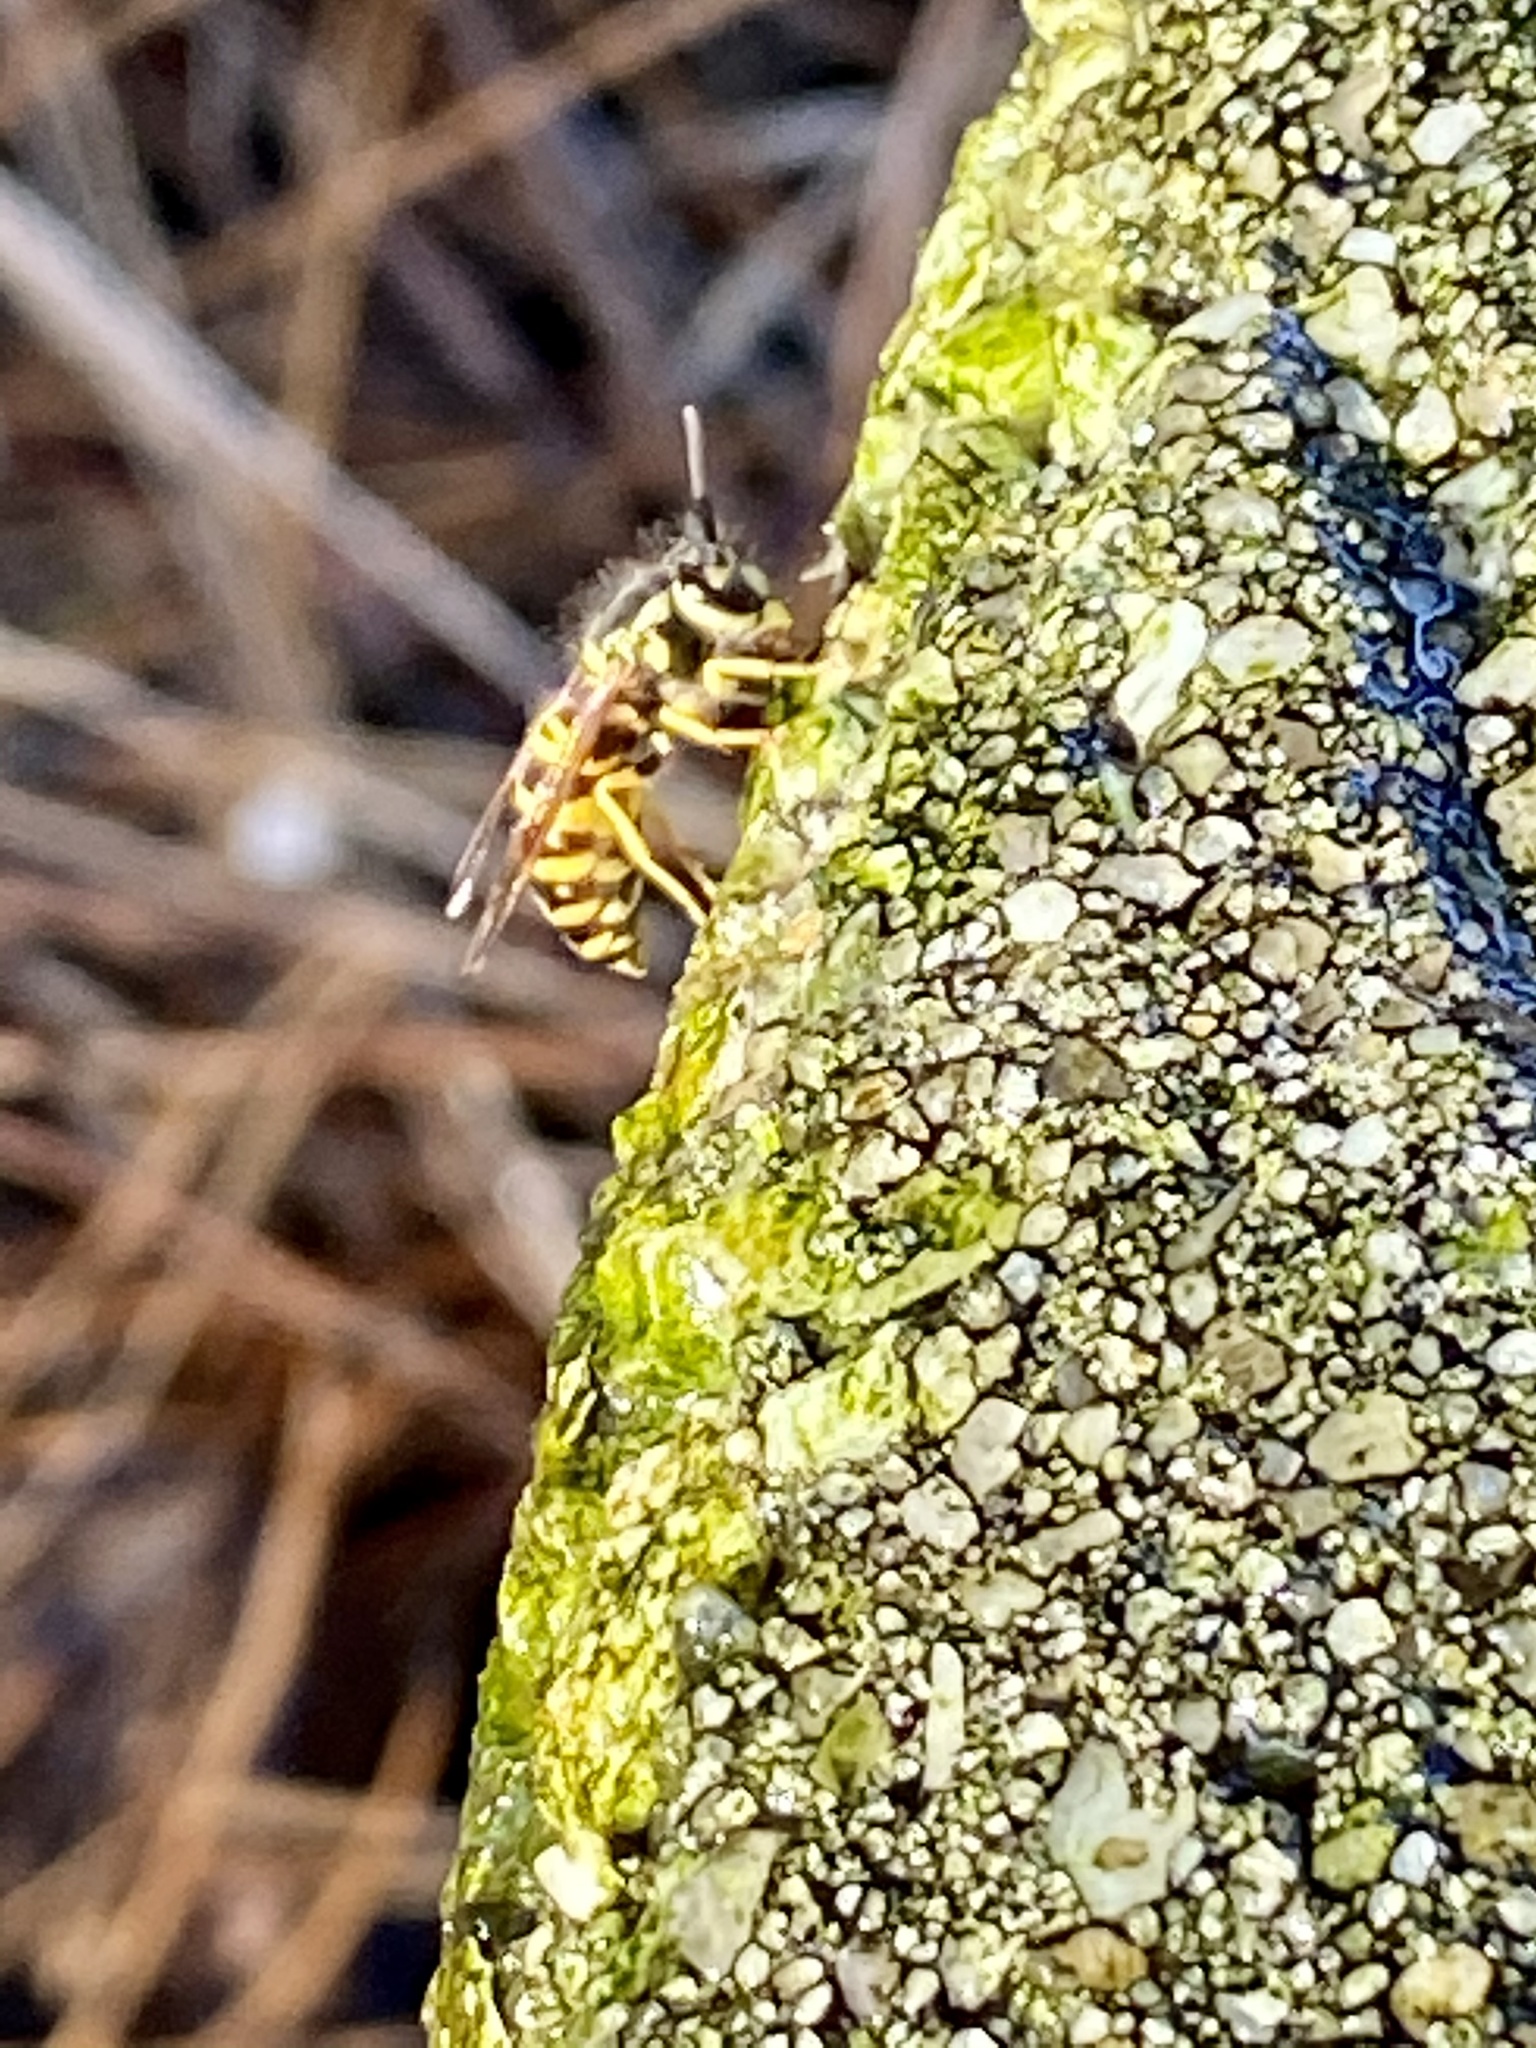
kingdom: Animalia
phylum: Arthropoda
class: Insecta
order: Hymenoptera
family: Vespidae
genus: Vespula
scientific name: Vespula maculifrons
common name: Eastern yellowjacket
